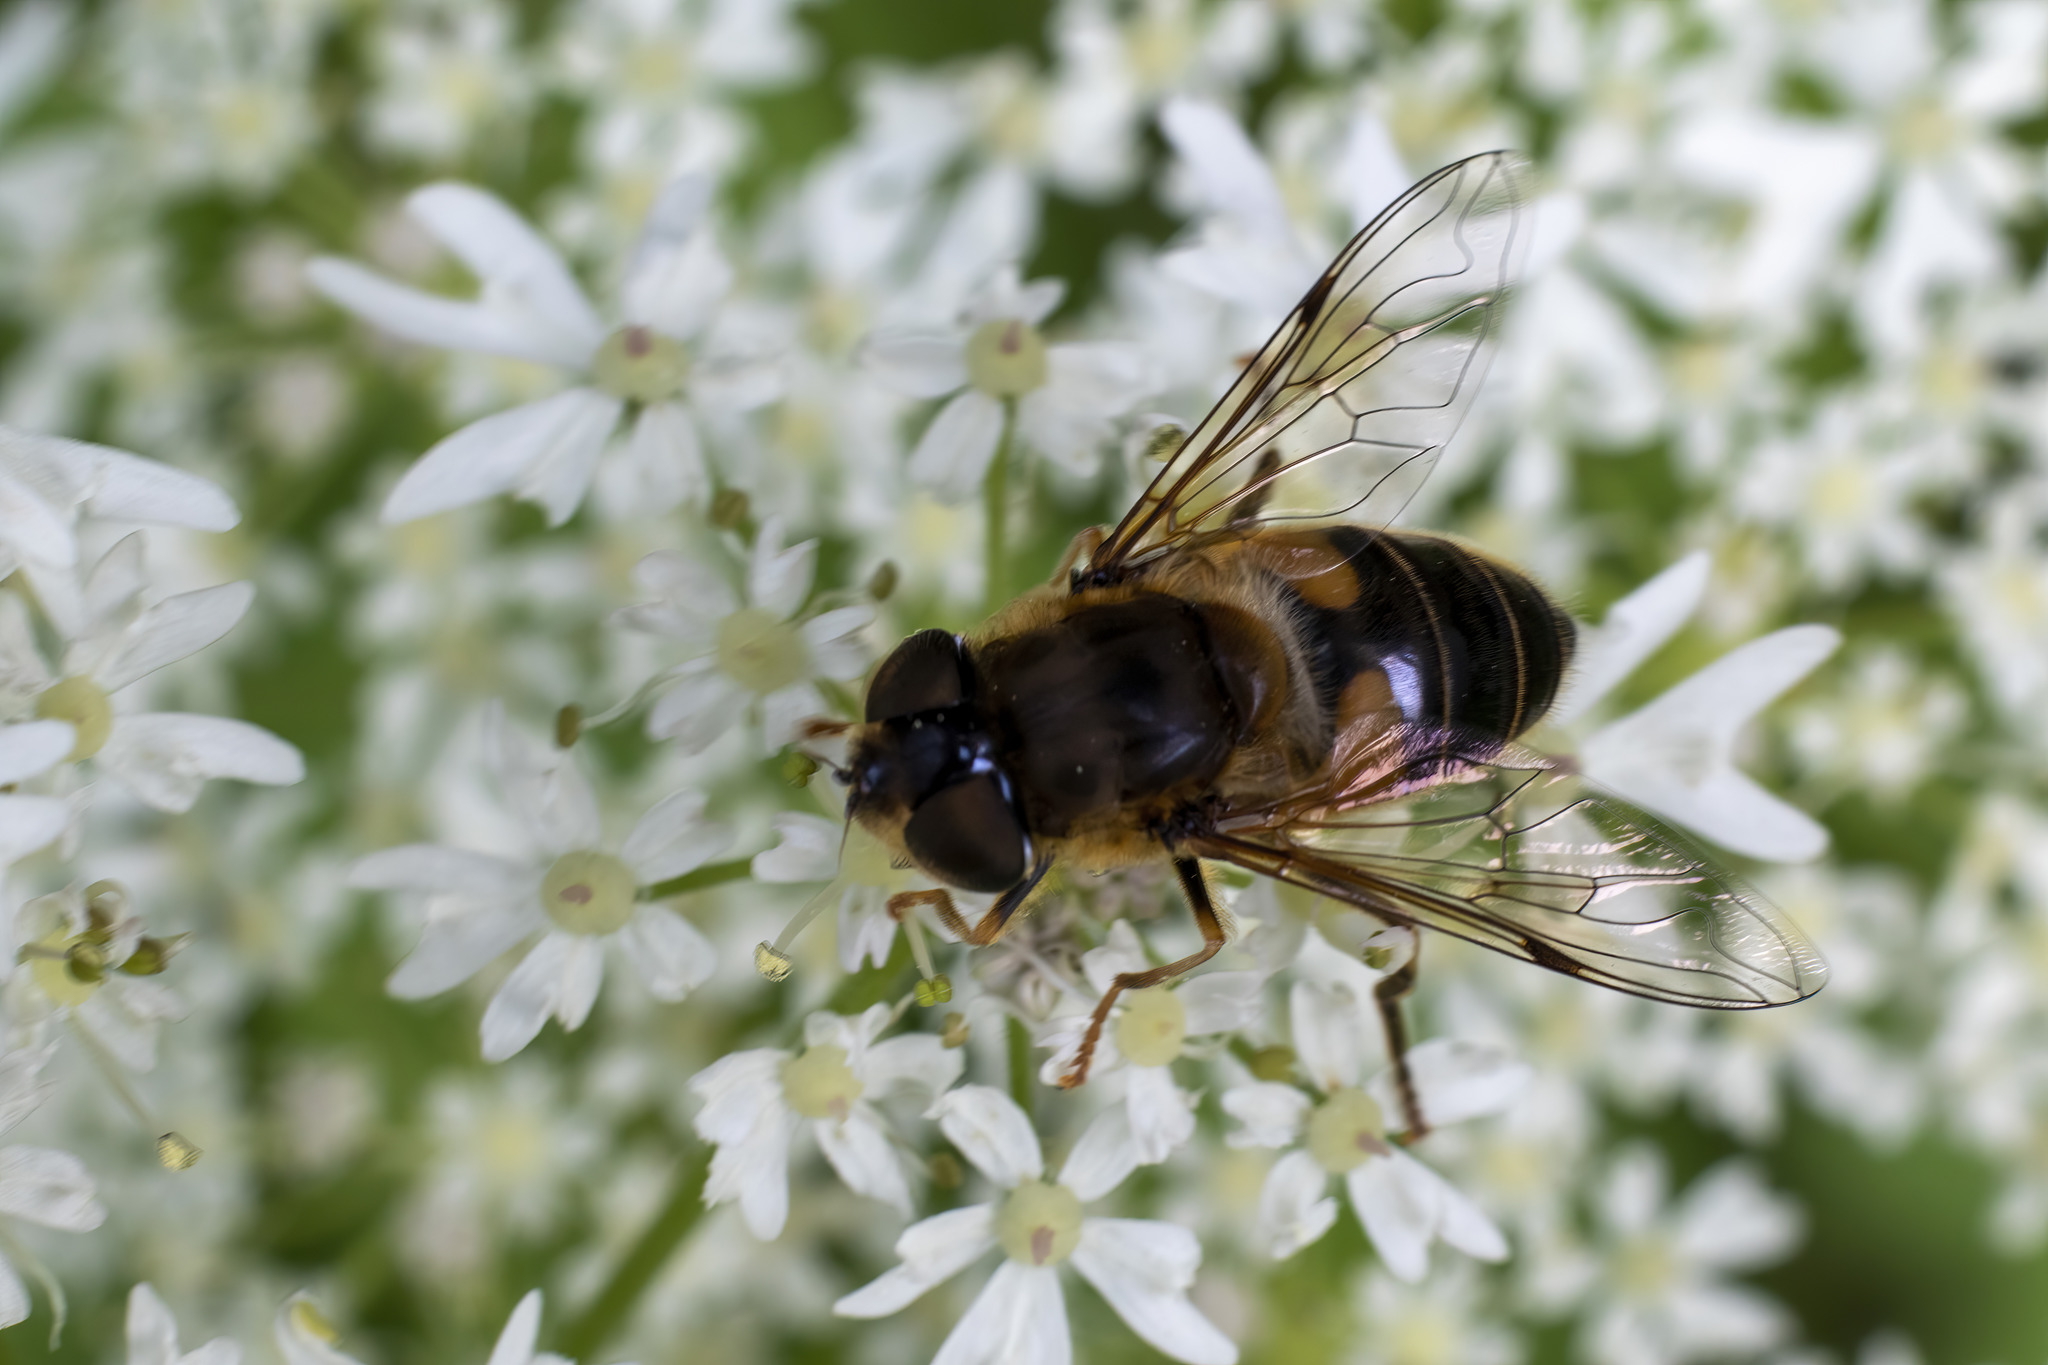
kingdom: Animalia
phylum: Arthropoda
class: Insecta
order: Diptera
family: Syrphidae
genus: Eristalis
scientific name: Eristalis pertinax
